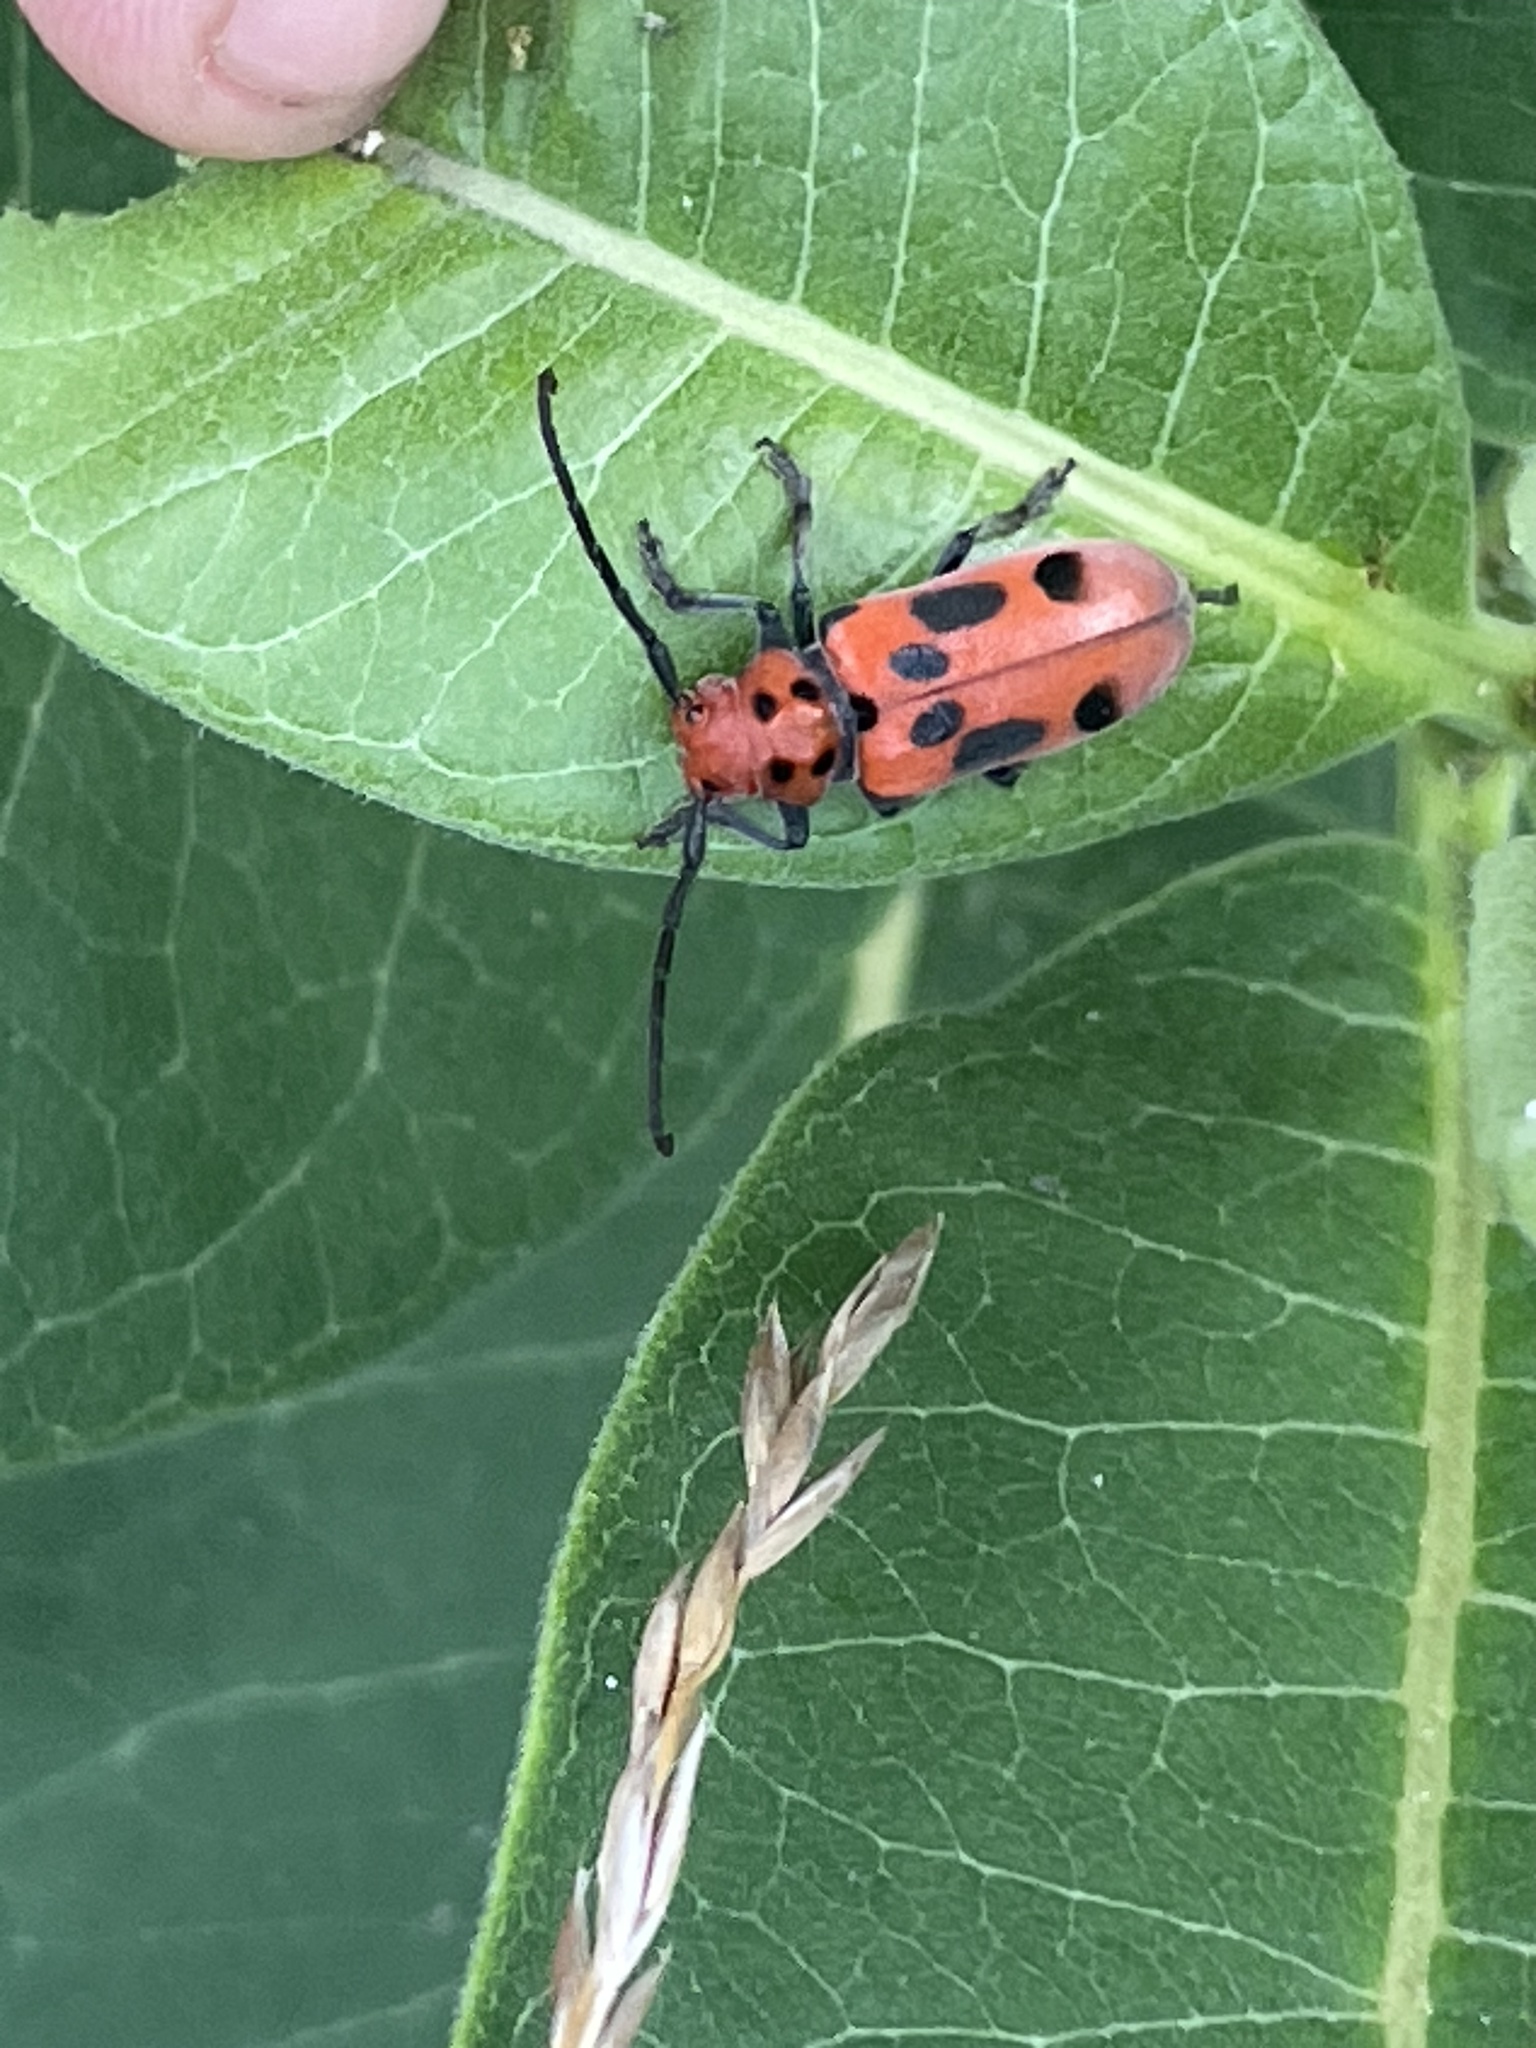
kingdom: Animalia
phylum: Arthropoda
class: Insecta
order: Coleoptera
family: Cerambycidae
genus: Tetraopes
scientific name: Tetraopes tetrophthalmus
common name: Red milkweed beetle
